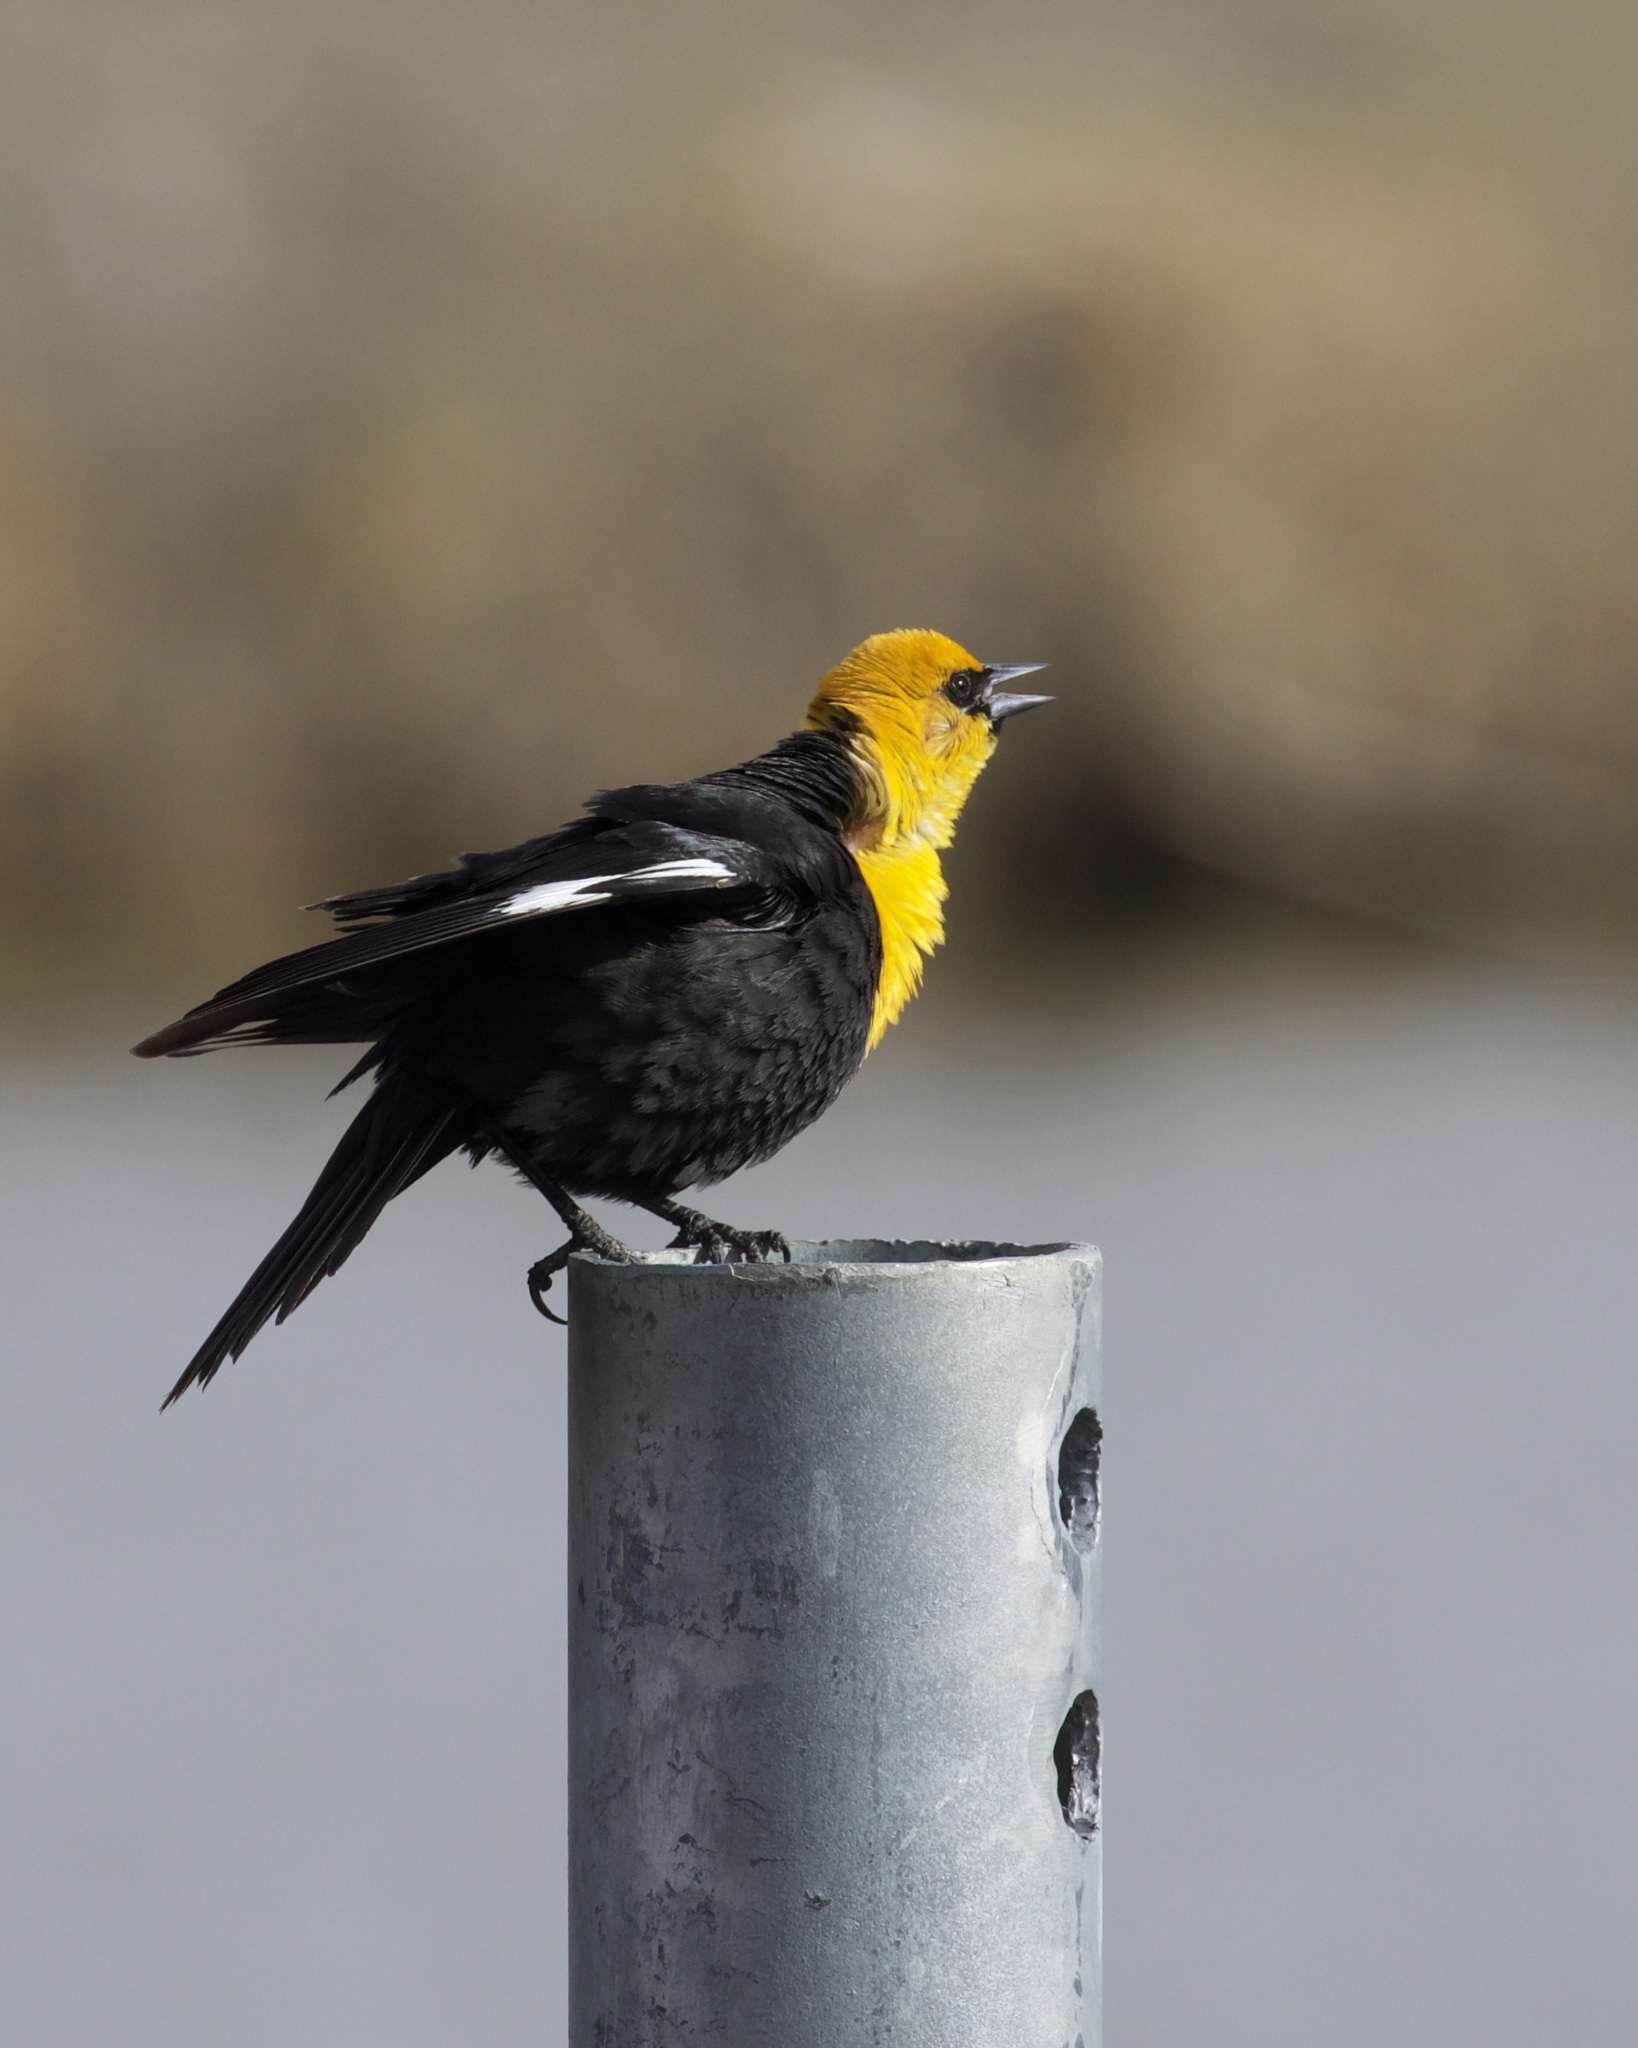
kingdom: Animalia
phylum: Chordata
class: Aves
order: Passeriformes
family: Icteridae
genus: Xanthocephalus
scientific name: Xanthocephalus xanthocephalus
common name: Yellow-headed blackbird
